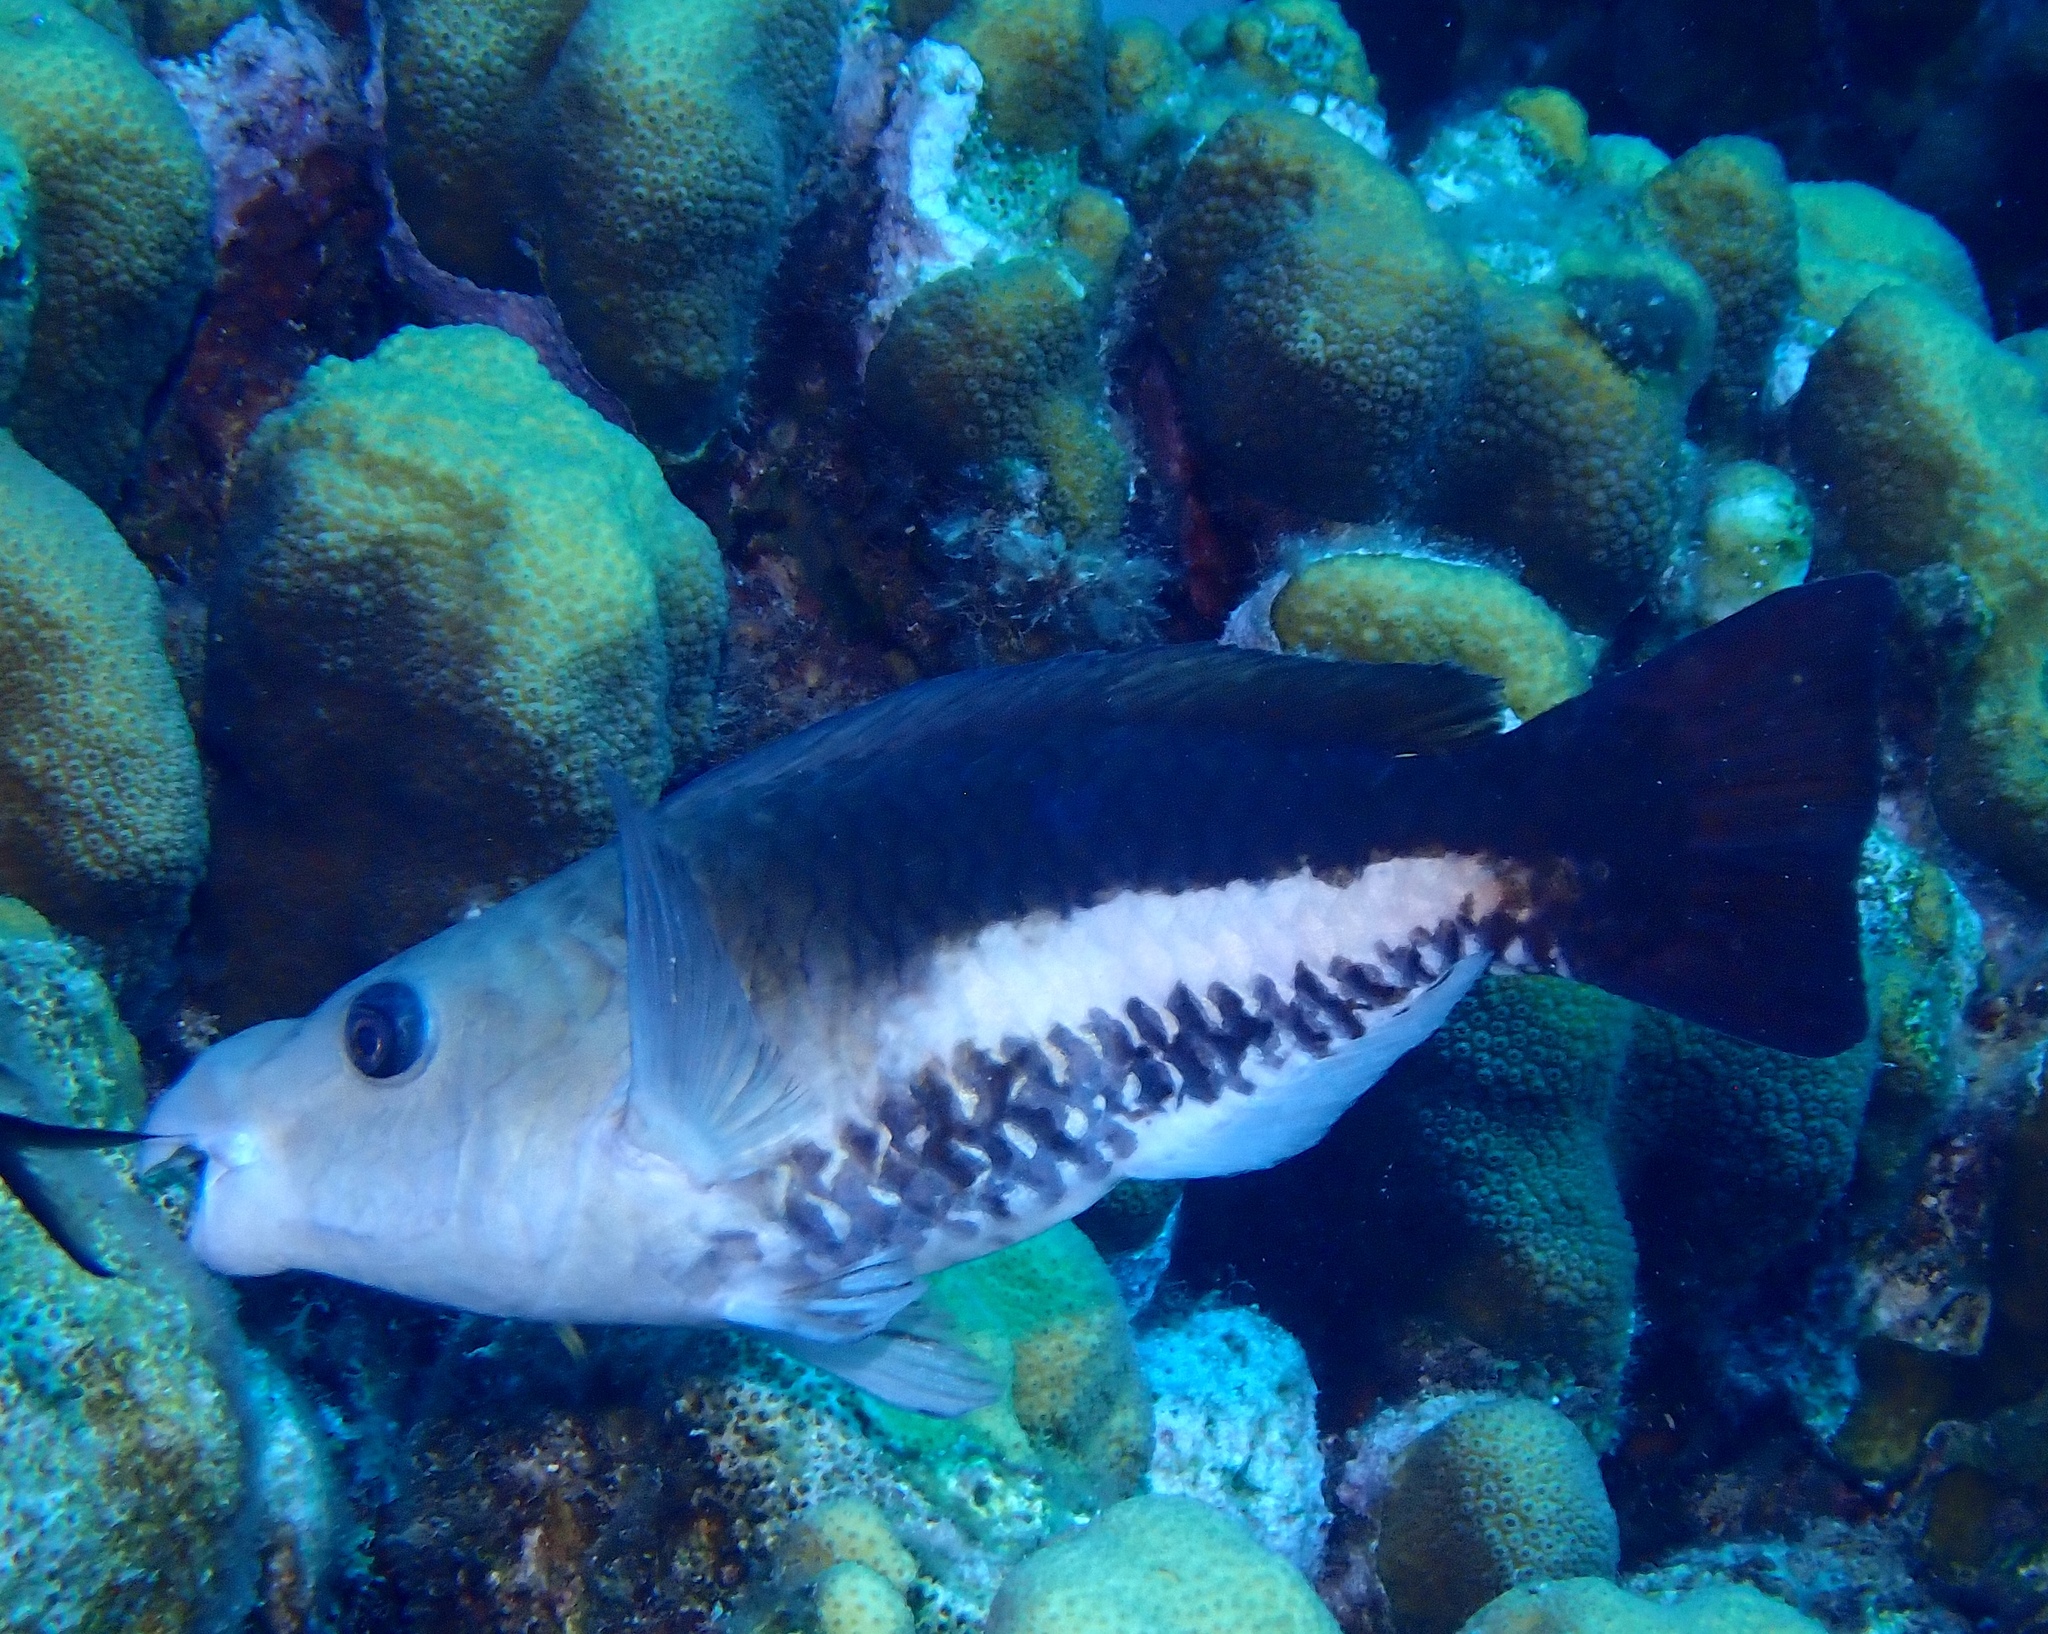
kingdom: Animalia
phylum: Chordata
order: Perciformes
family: Scaridae
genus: Scarus
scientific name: Scarus vetula
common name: Queen parrotfish
